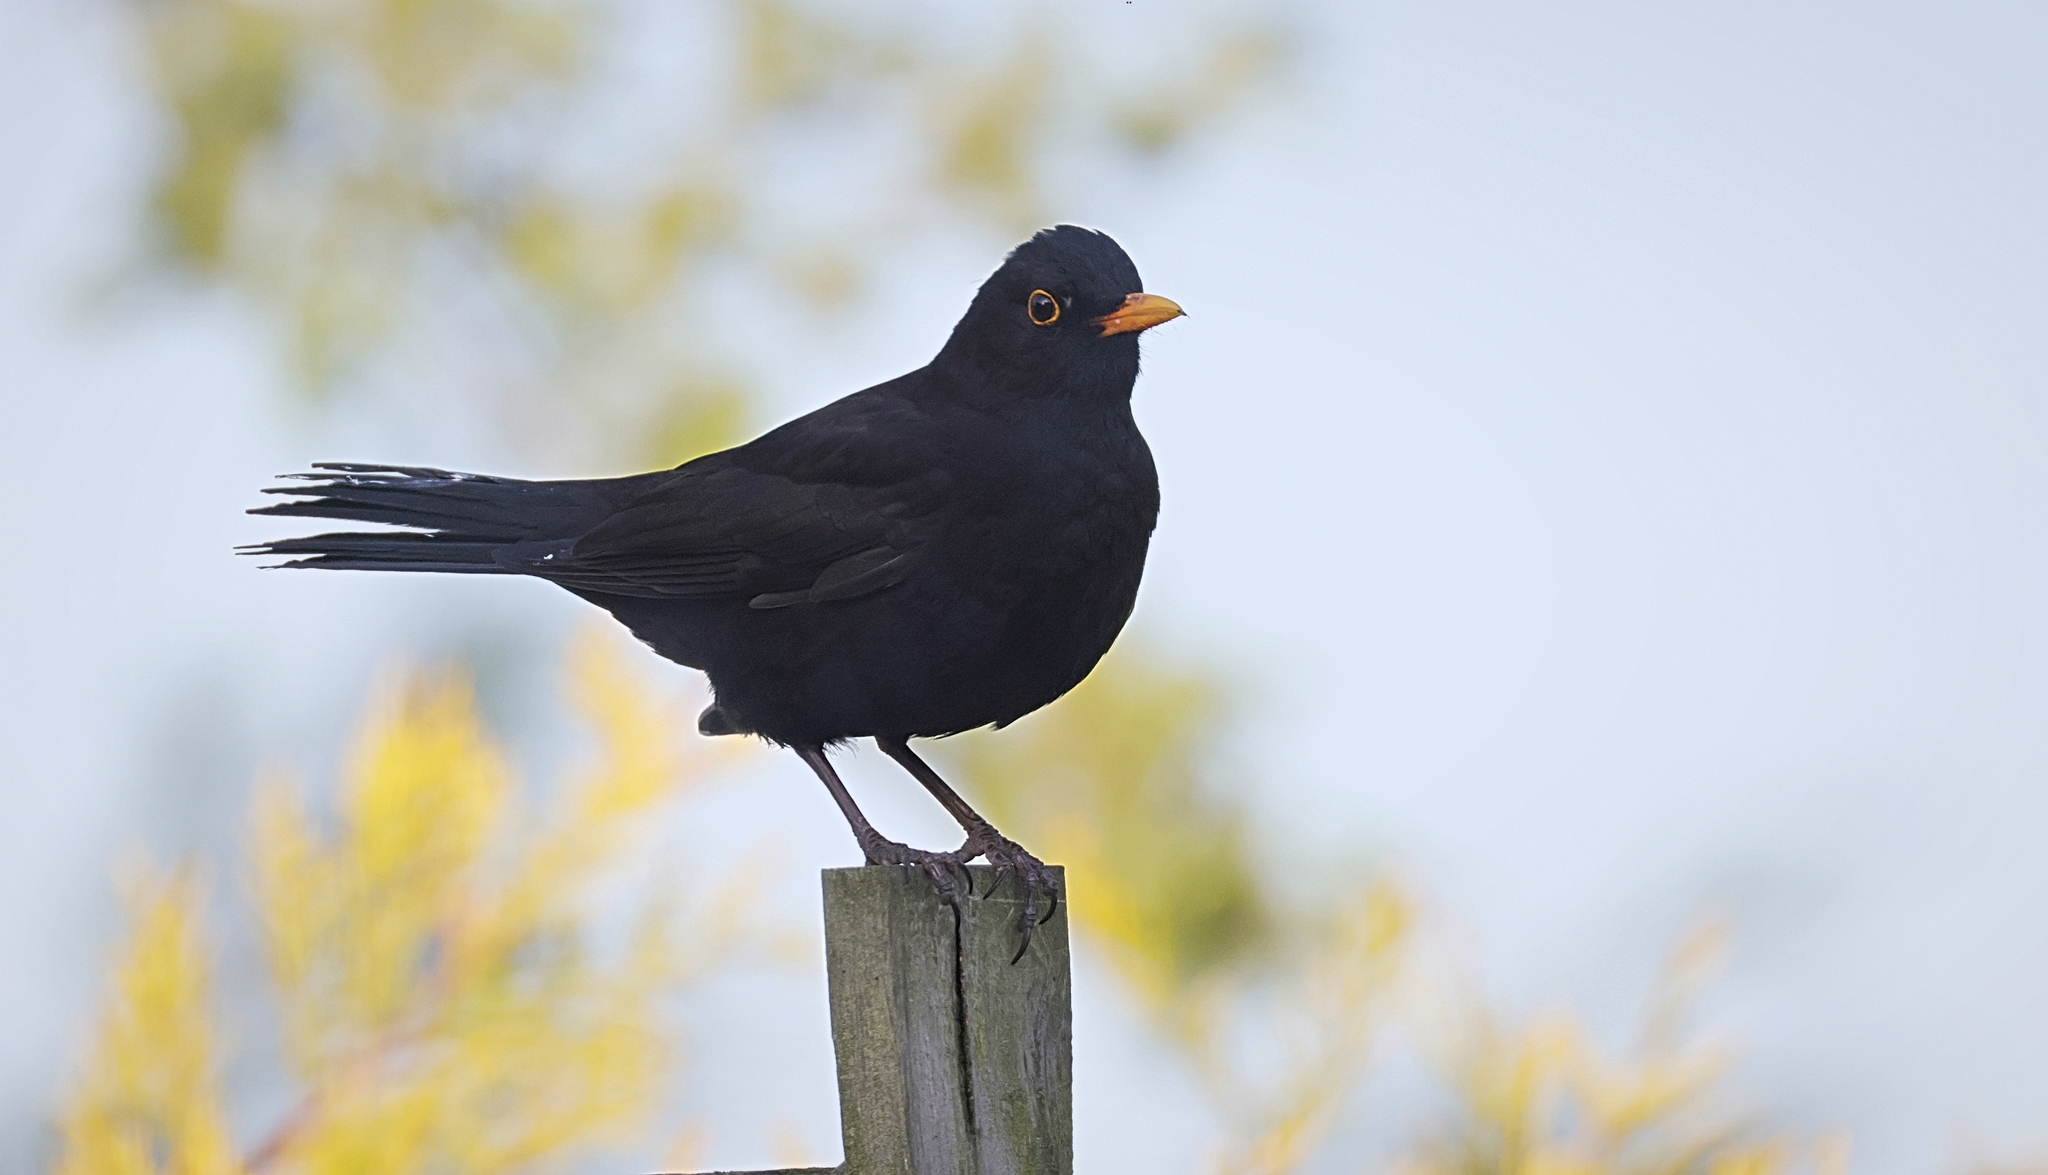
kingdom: Animalia
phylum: Chordata
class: Aves
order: Passeriformes
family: Turdidae
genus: Turdus
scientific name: Turdus merula
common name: Common blackbird
